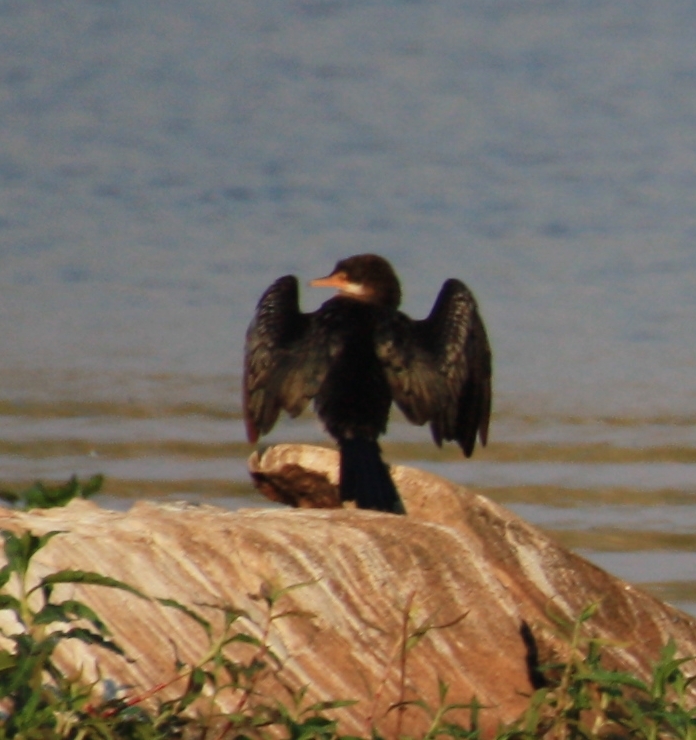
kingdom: Animalia
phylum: Chordata
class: Aves
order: Suliformes
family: Phalacrocoracidae
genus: Microcarbo
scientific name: Microcarbo africanus
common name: Long-tailed cormorant
